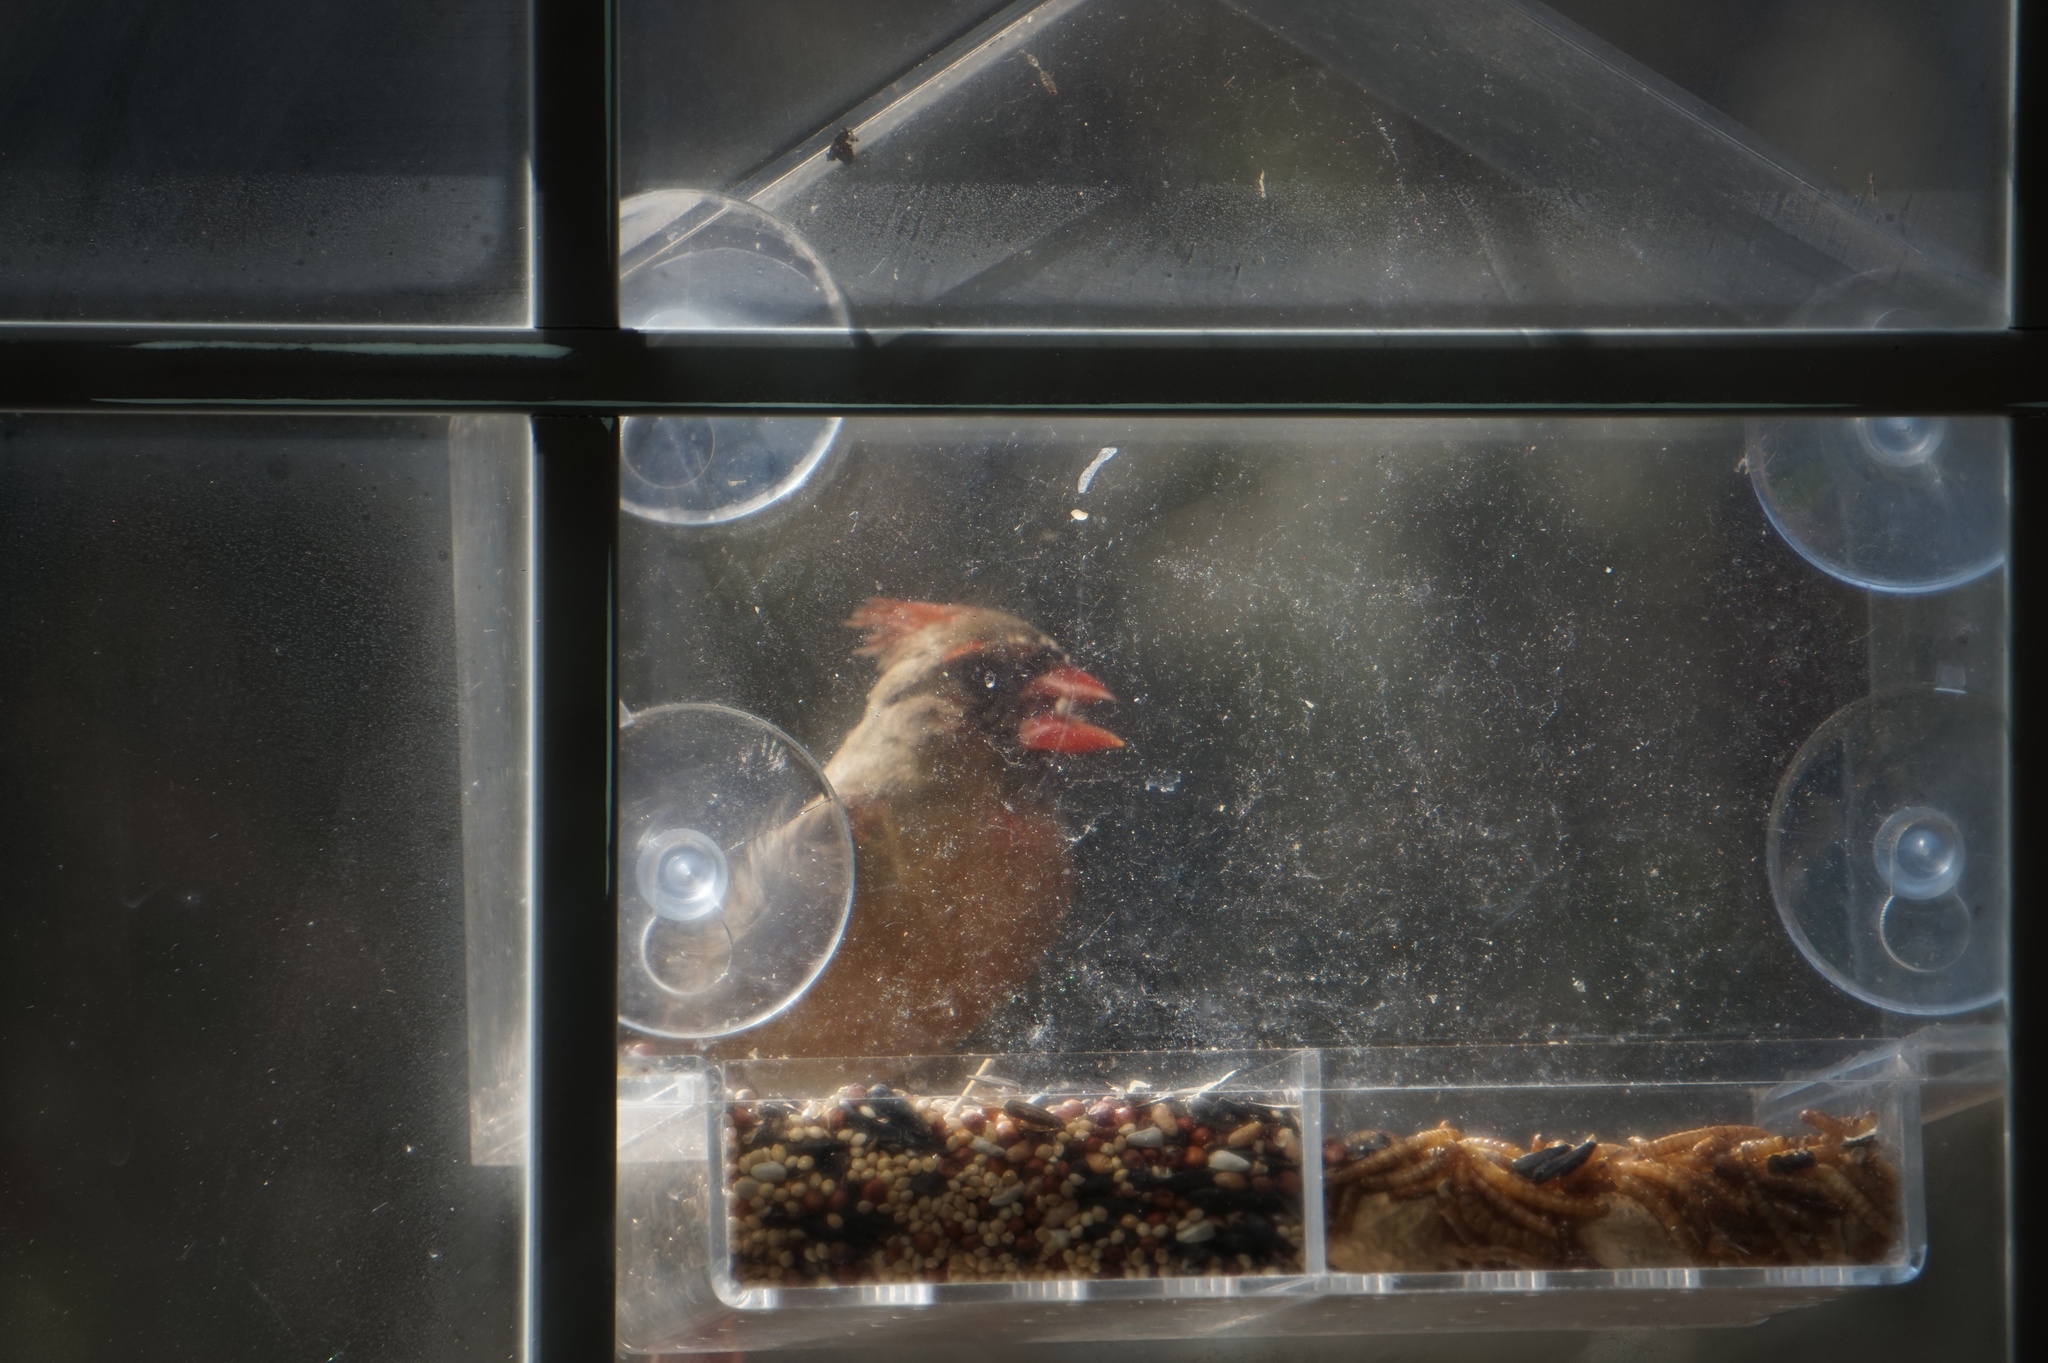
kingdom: Animalia
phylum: Chordata
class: Aves
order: Passeriformes
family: Cardinalidae
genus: Cardinalis
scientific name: Cardinalis cardinalis
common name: Northern cardinal
